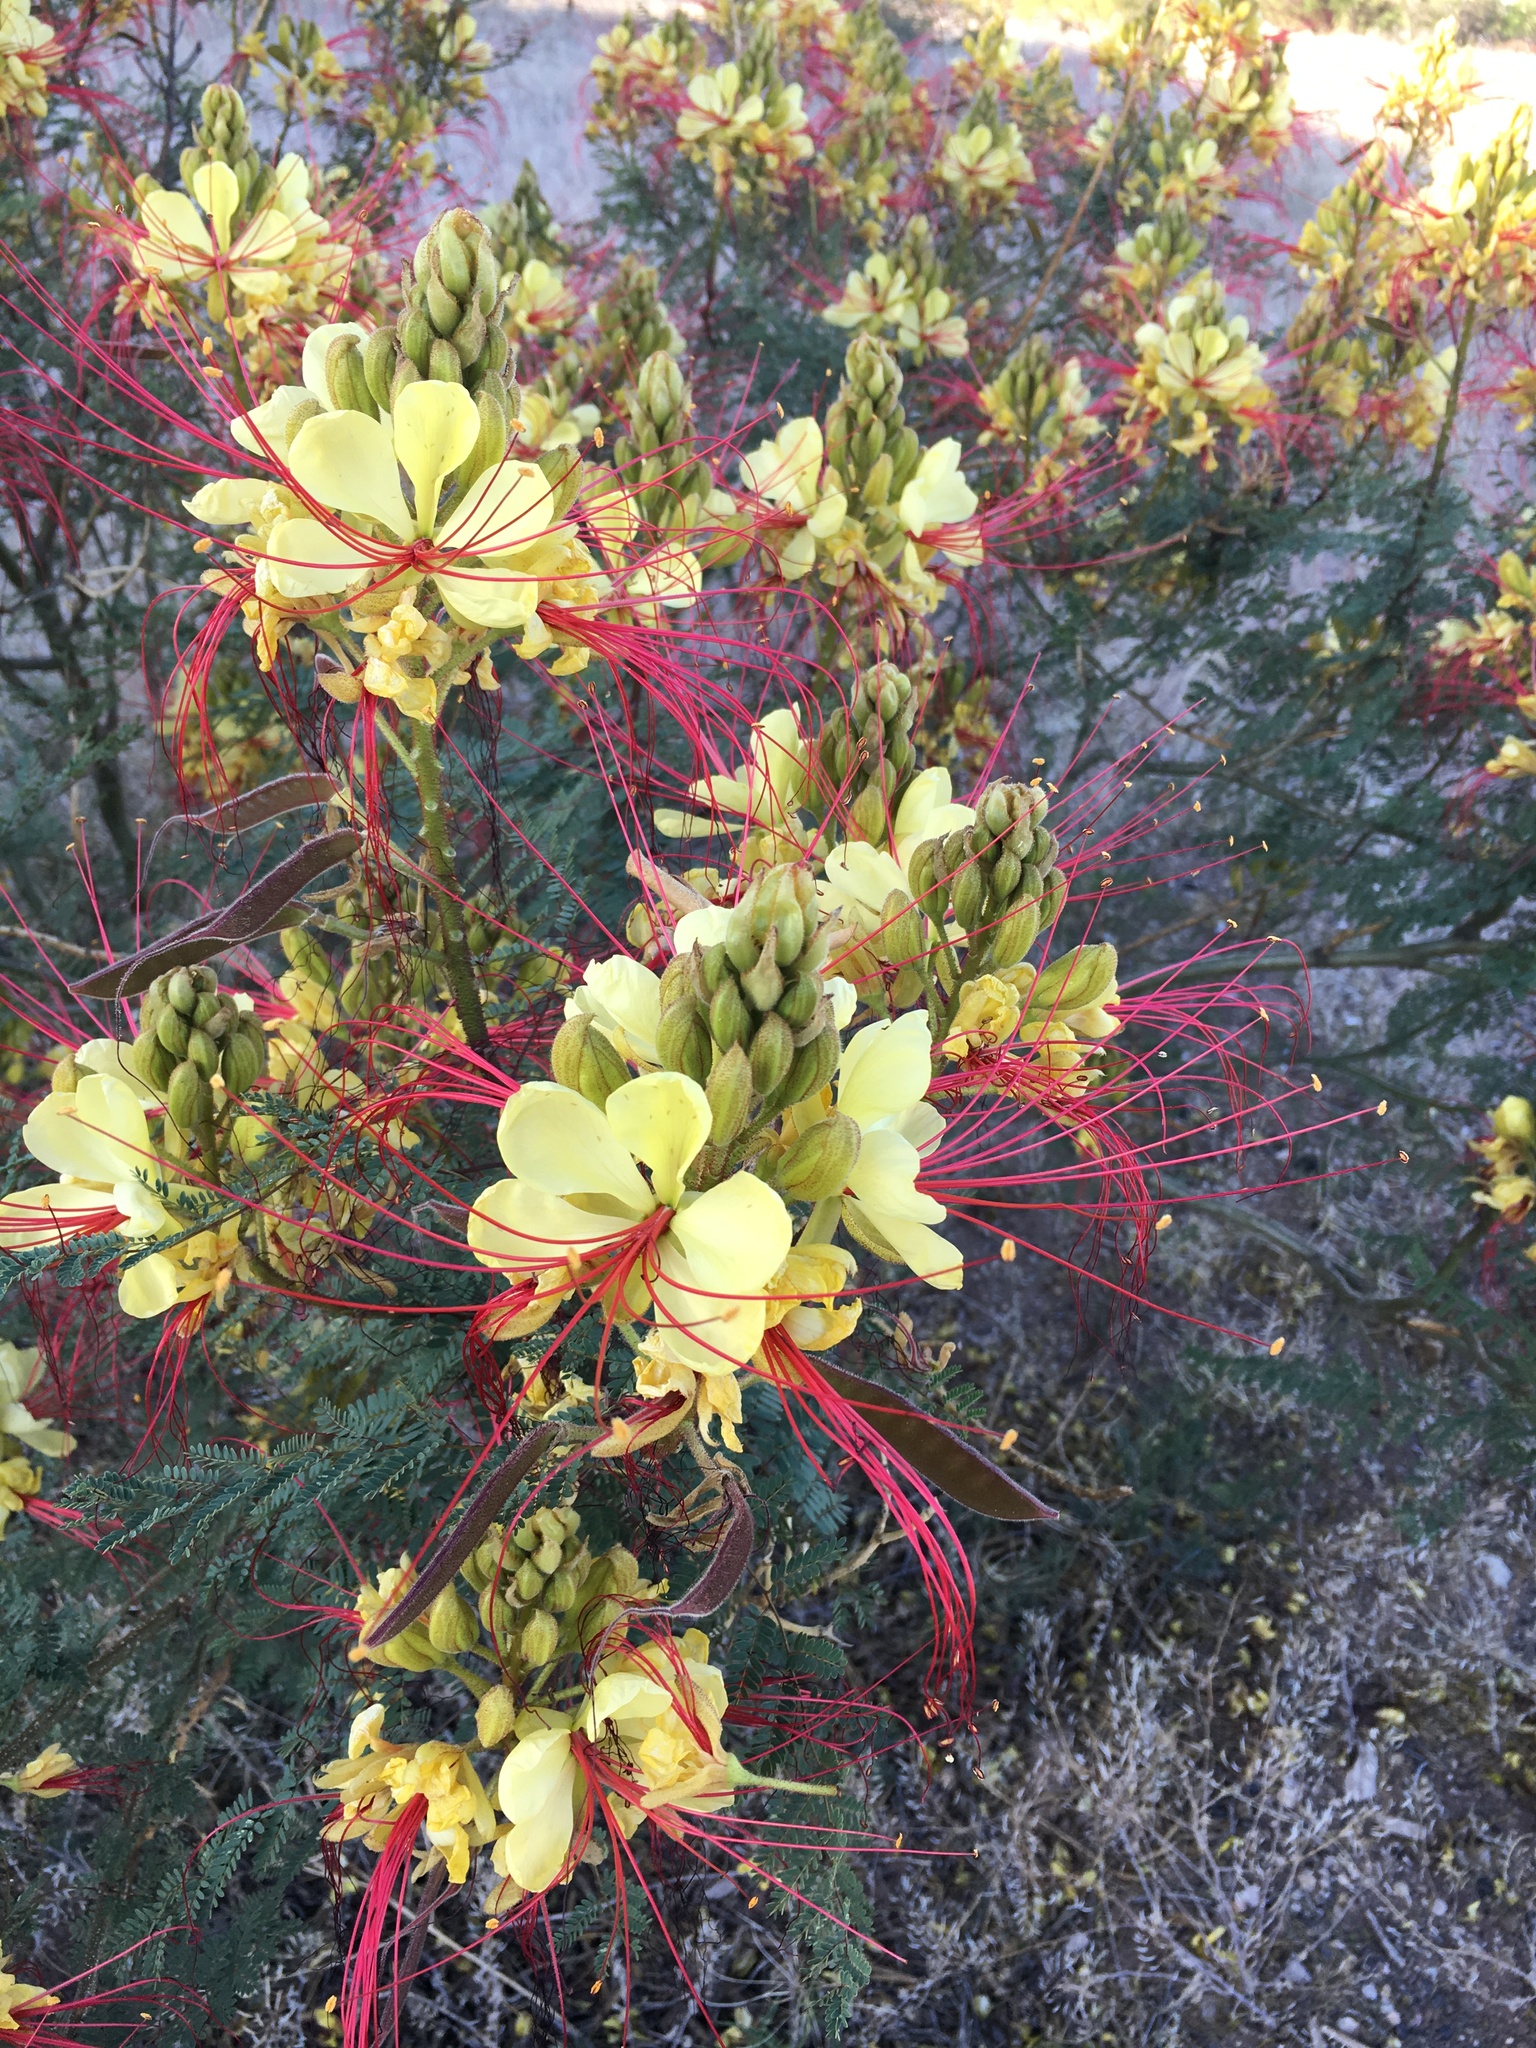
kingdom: Plantae
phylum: Tracheophyta
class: Magnoliopsida
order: Fabales
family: Fabaceae
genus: Erythrostemon
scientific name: Erythrostemon gilliesii
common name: Bird-of-paradise shrub
